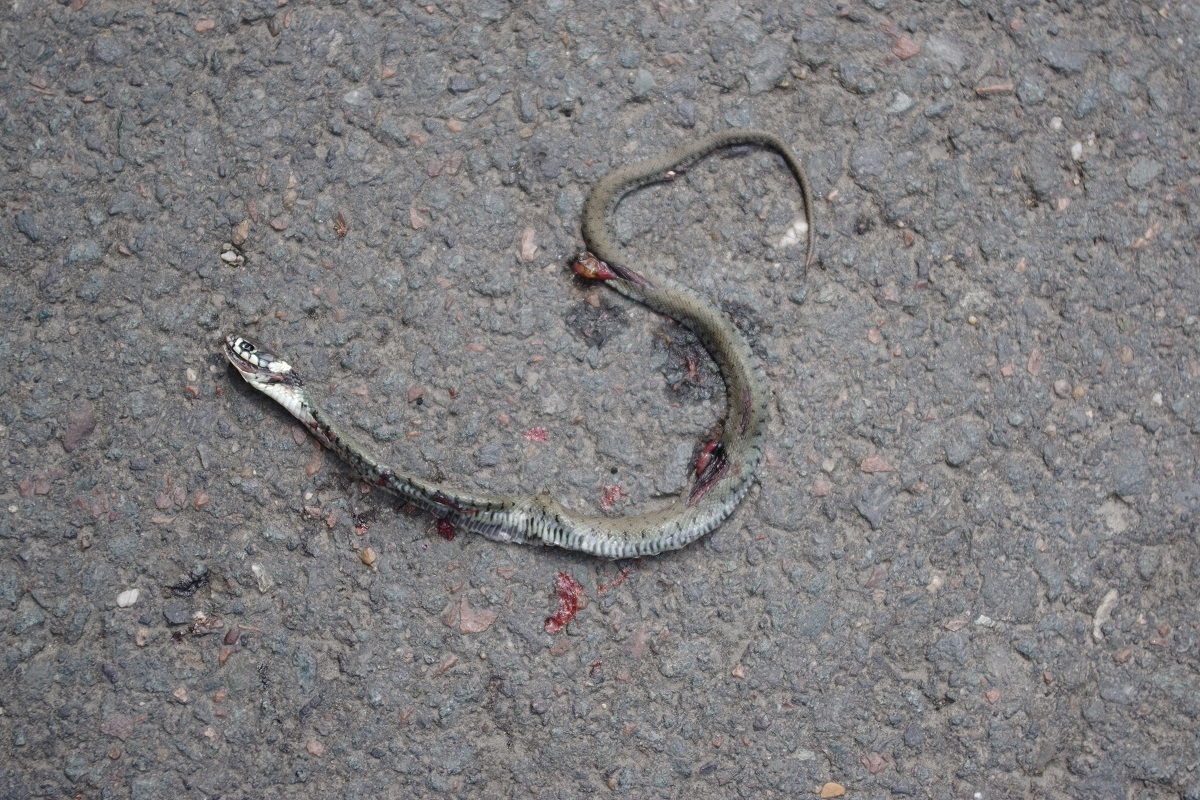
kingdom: Animalia
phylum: Chordata
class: Squamata
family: Colubridae
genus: Natrix
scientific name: Natrix helvetica
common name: Banded grass snake
